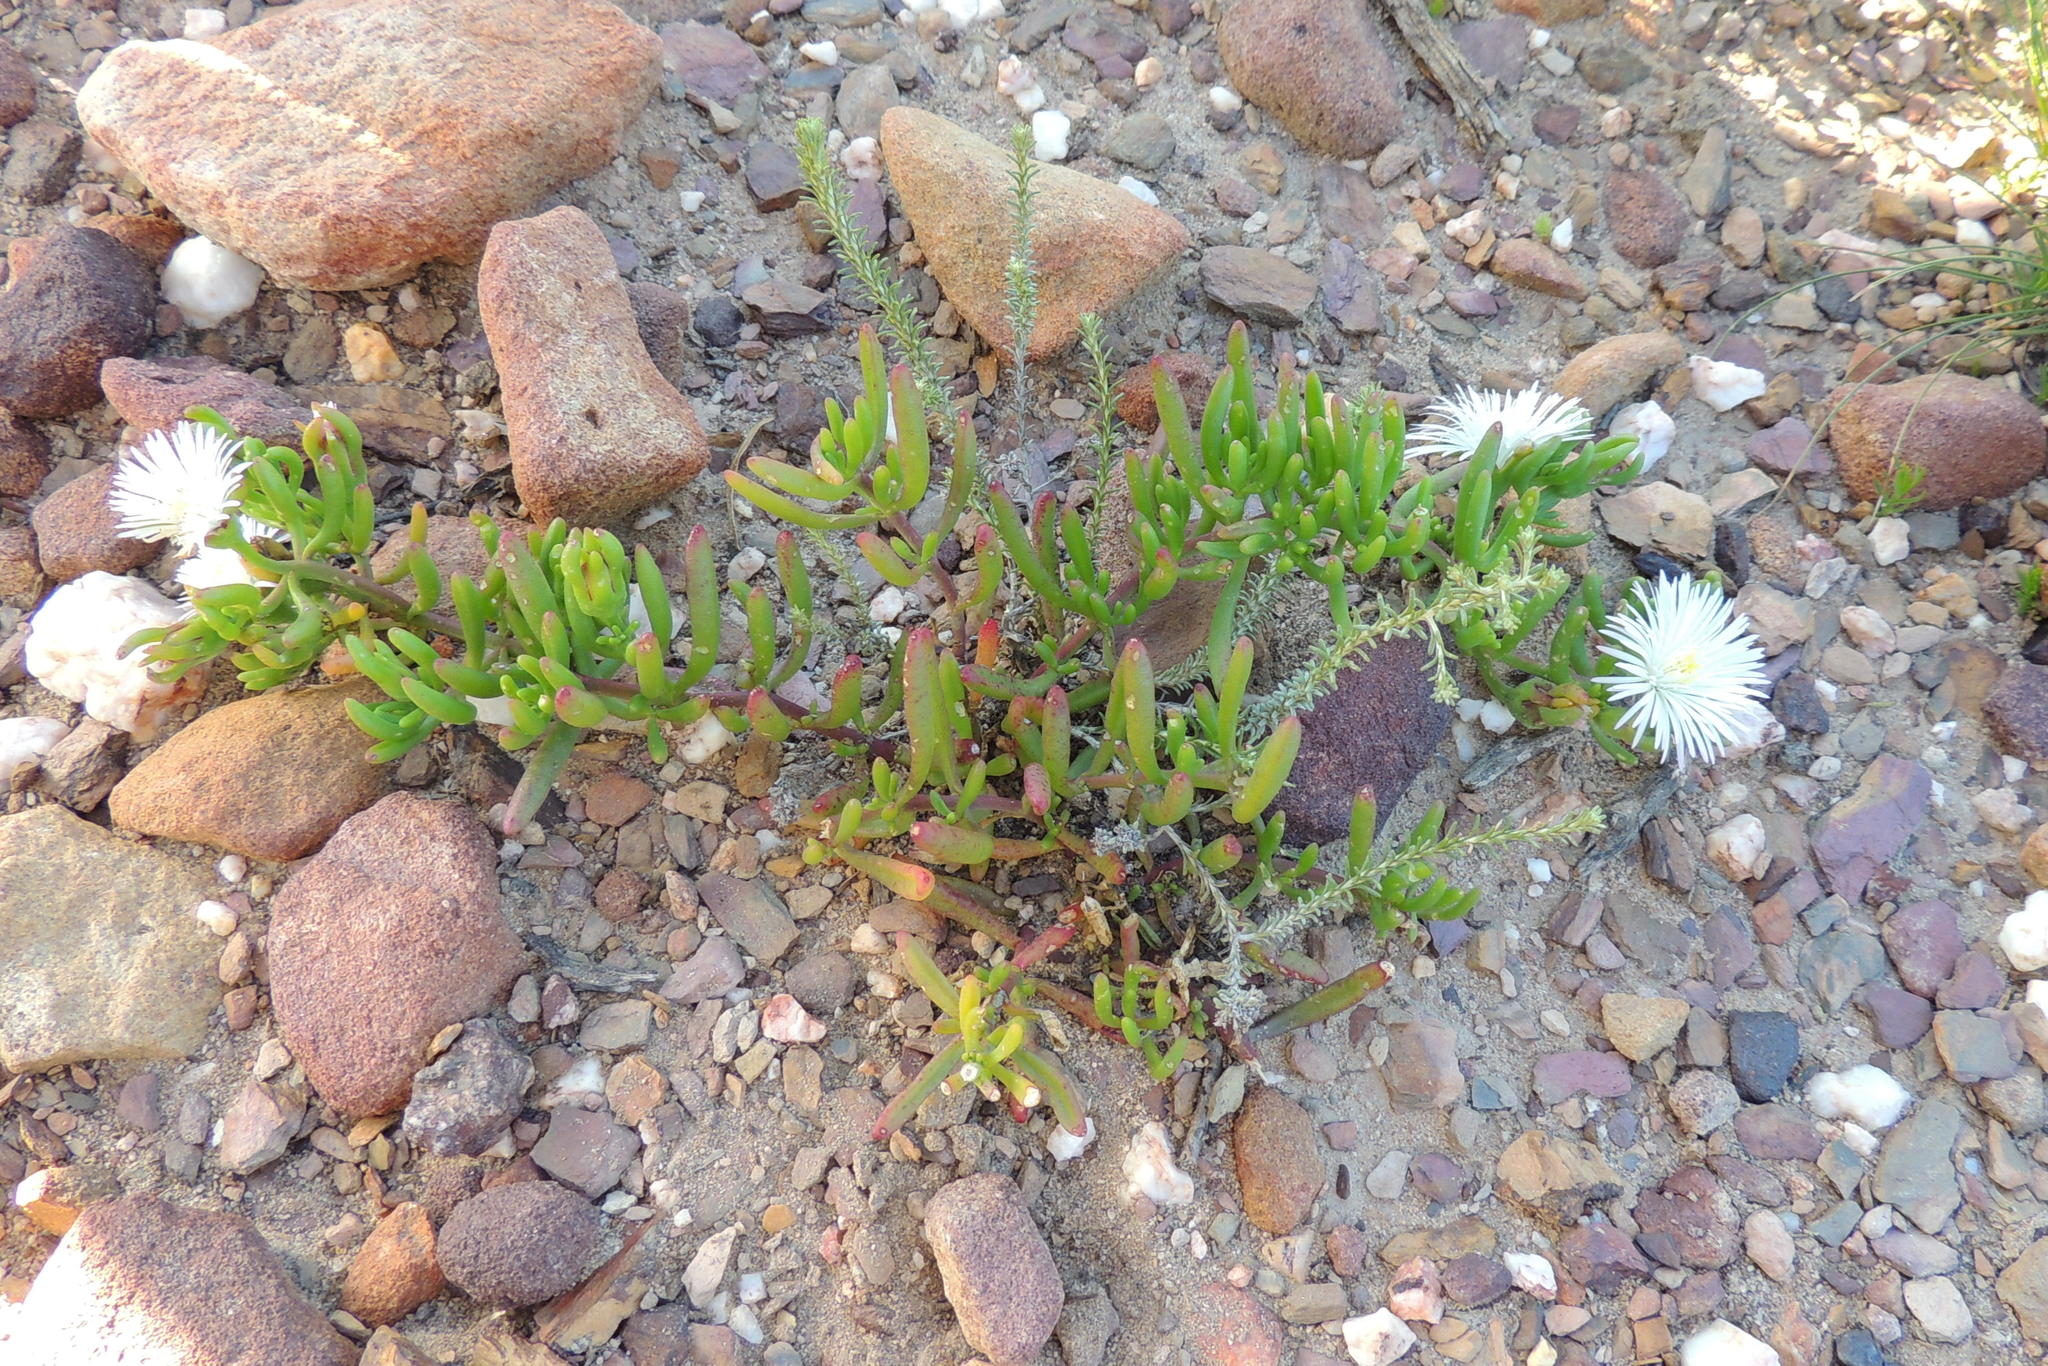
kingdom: Plantae
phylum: Tracheophyta
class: Magnoliopsida
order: Caryophyllales
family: Aizoaceae
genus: Mesembryanthemum
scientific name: Mesembryanthemum longistylum
